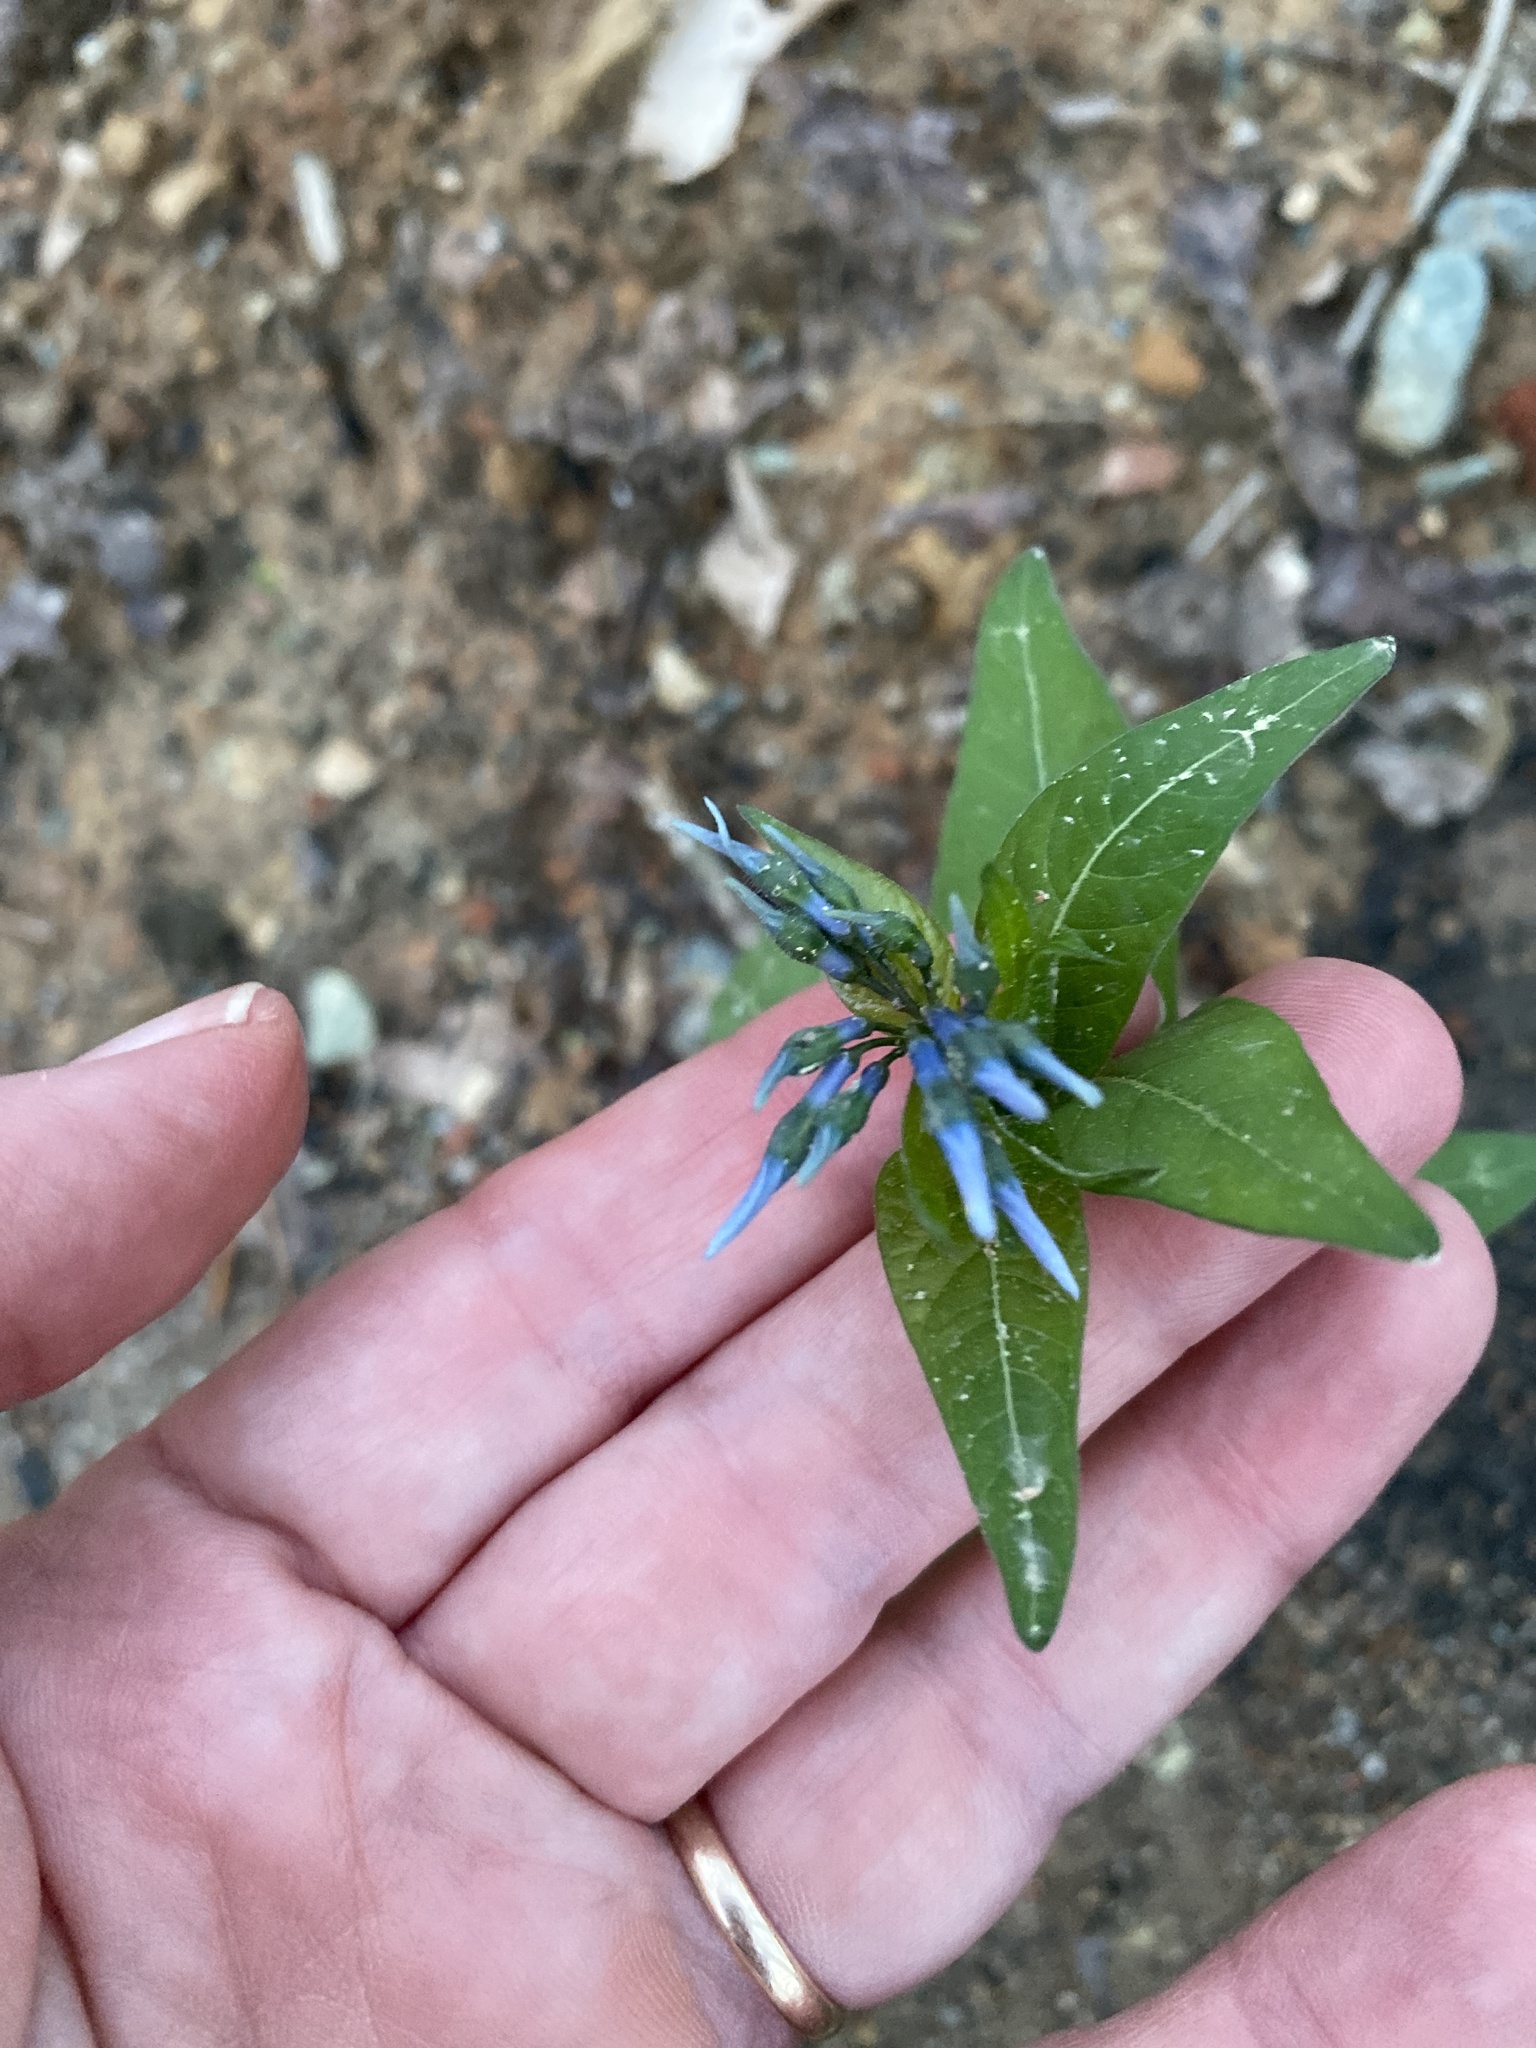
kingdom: Plantae
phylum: Tracheophyta
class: Magnoliopsida
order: Gentianales
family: Apocynaceae
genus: Amsonia
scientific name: Amsonia tabernaemontana
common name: Texas-star
